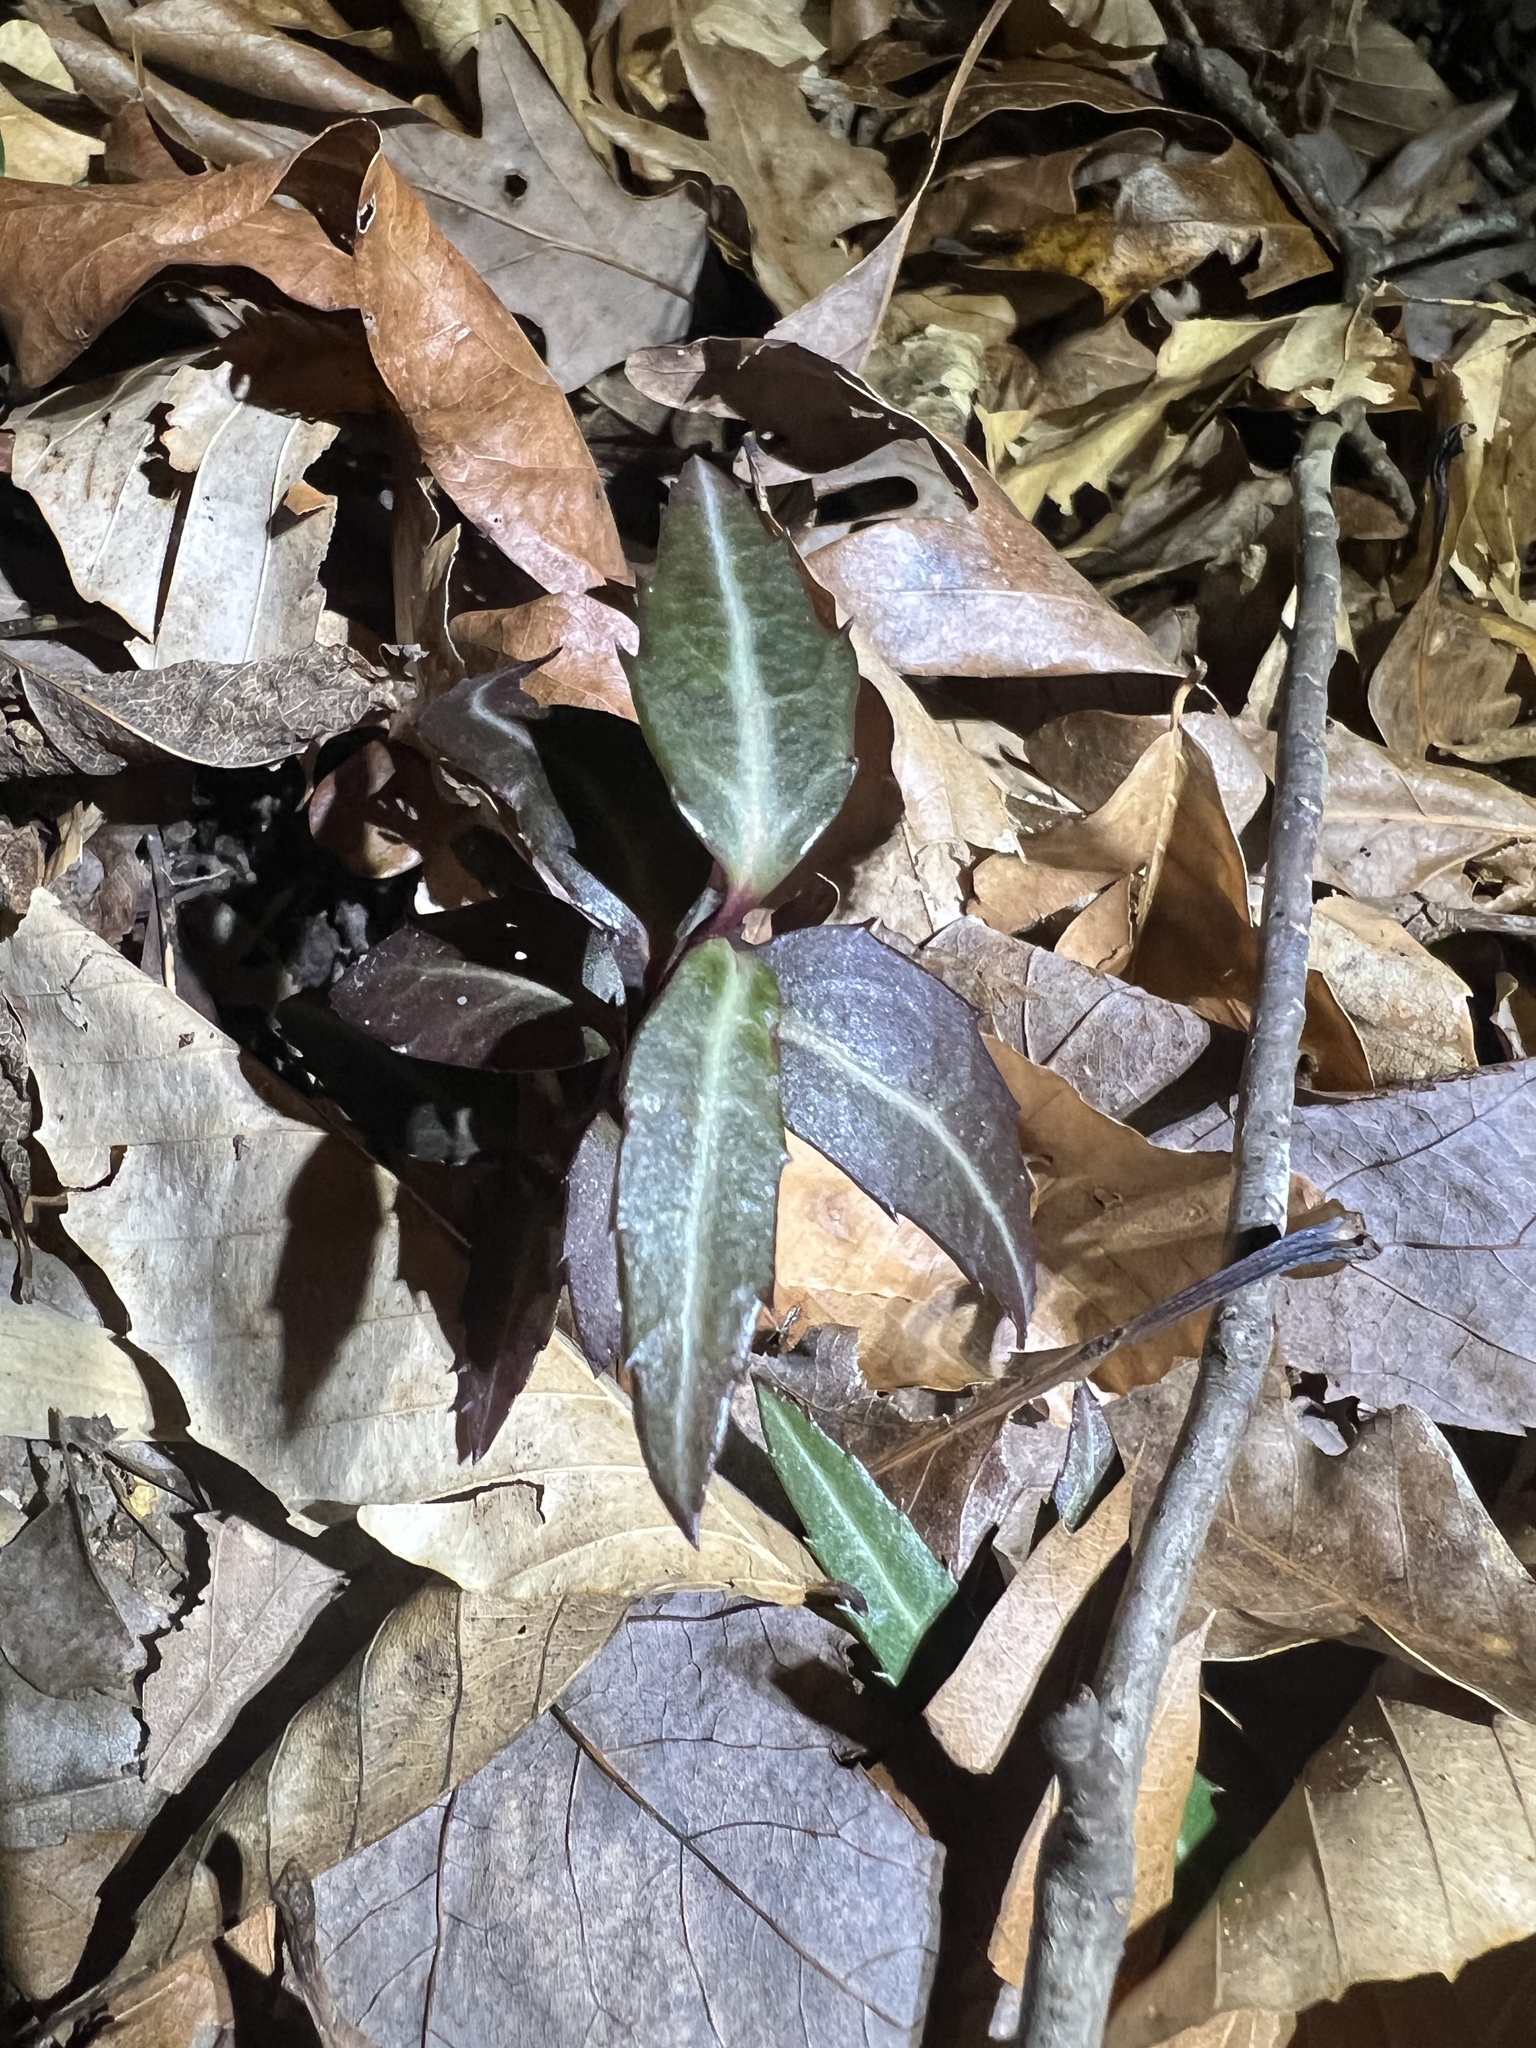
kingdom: Plantae
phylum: Tracheophyta
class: Magnoliopsida
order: Ericales
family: Ericaceae
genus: Chimaphila
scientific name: Chimaphila maculata
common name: Spotted pipsissewa
